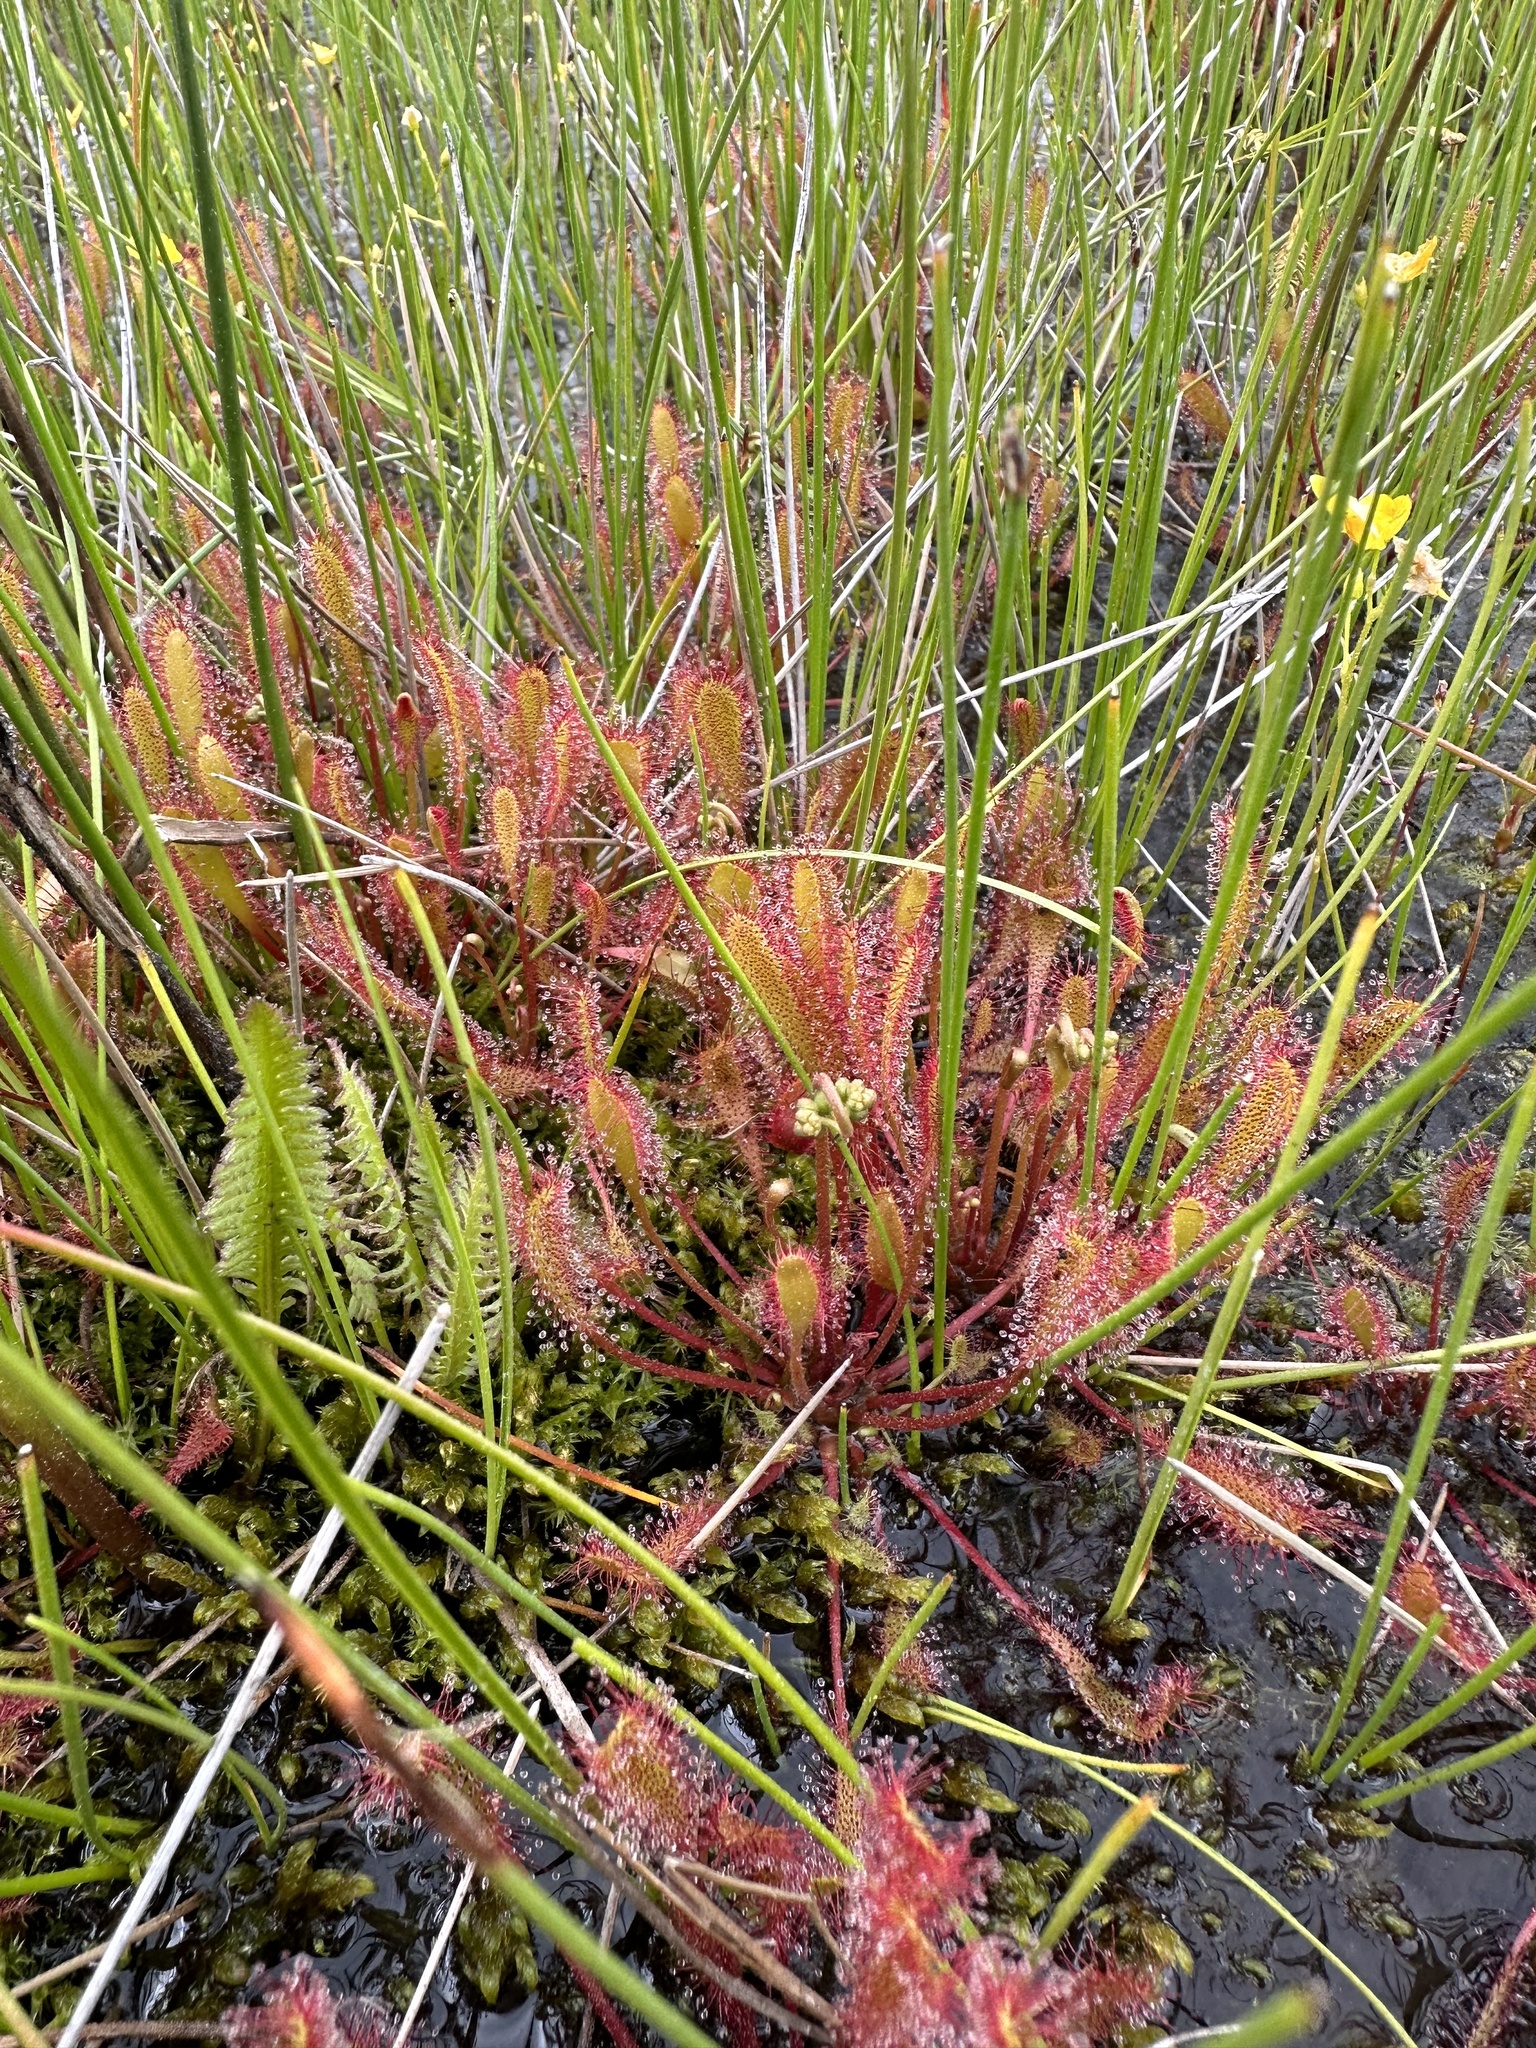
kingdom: Plantae
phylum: Tracheophyta
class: Magnoliopsida
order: Caryophyllales
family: Droseraceae
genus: Drosera
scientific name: Drosera anglica
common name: Great sundew
